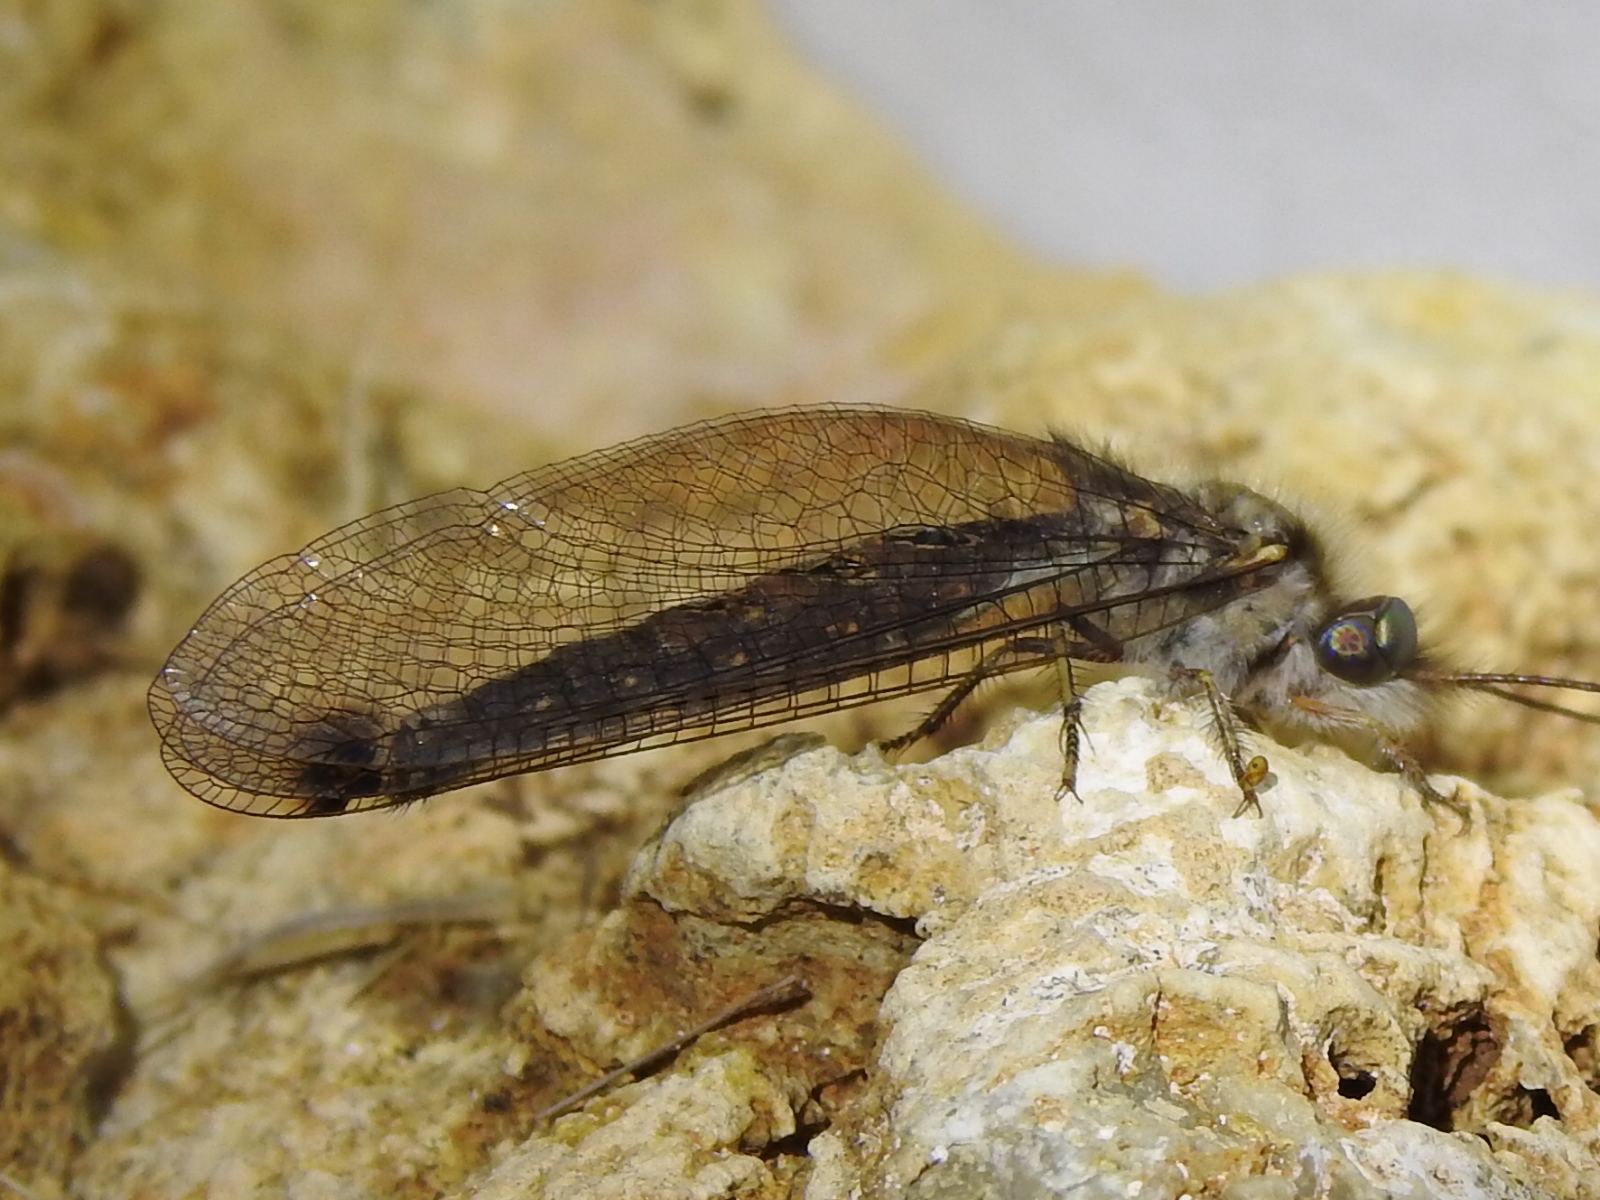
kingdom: Animalia
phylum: Arthropoda
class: Insecta
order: Neuroptera
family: Ascalaphidae
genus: Ululodes
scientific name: Ululodes macleayanus
